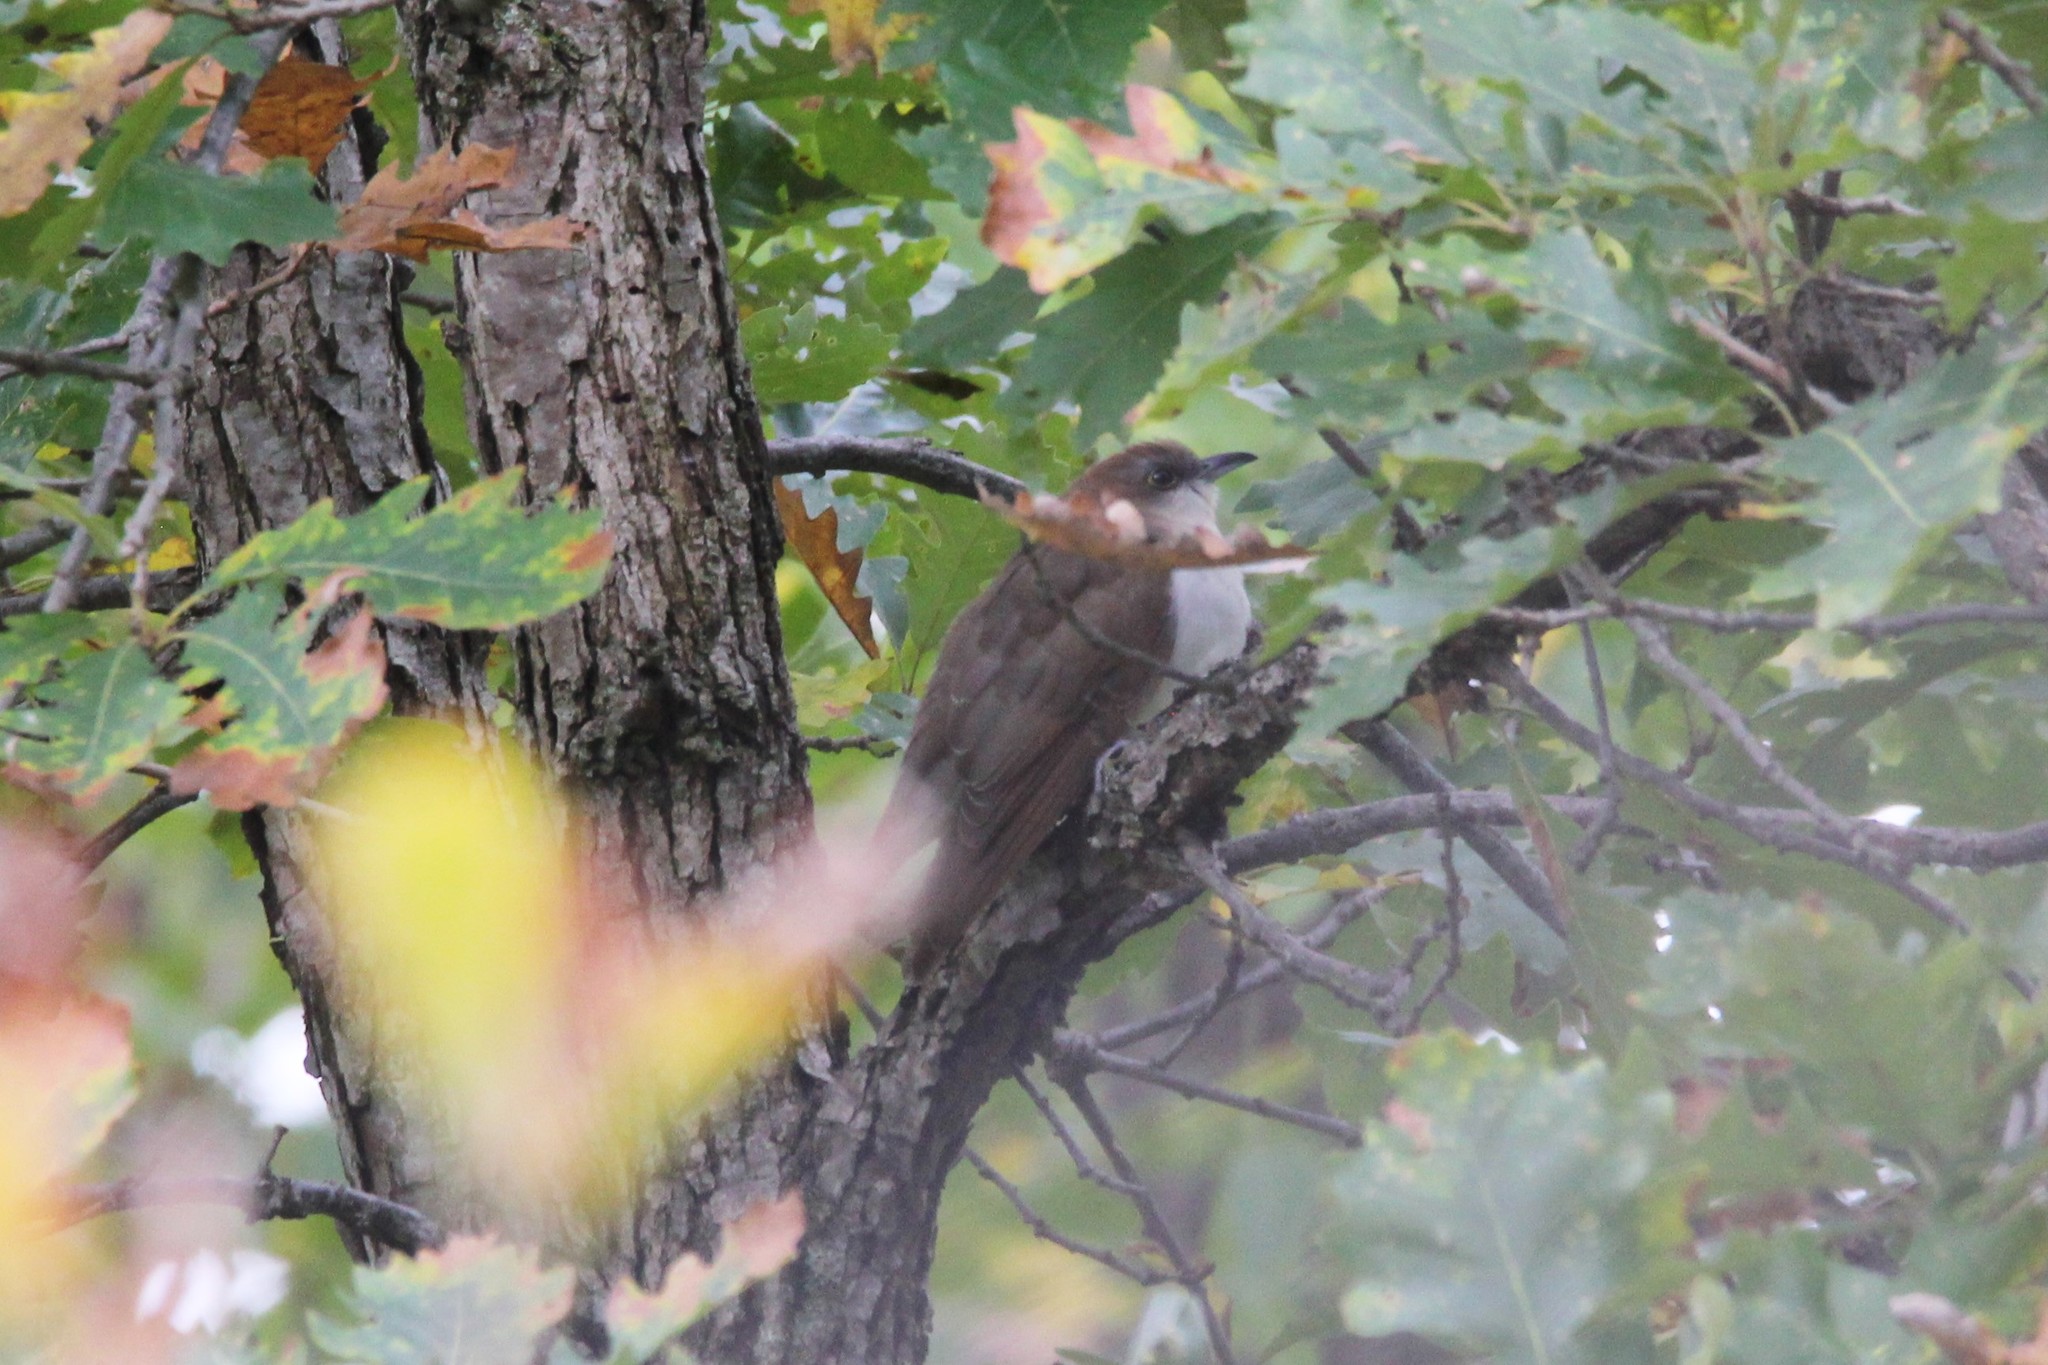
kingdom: Animalia
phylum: Chordata
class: Aves
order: Cuculiformes
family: Cuculidae
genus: Coccyzus
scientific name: Coccyzus erythropthalmus
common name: Black-billed cuckoo
